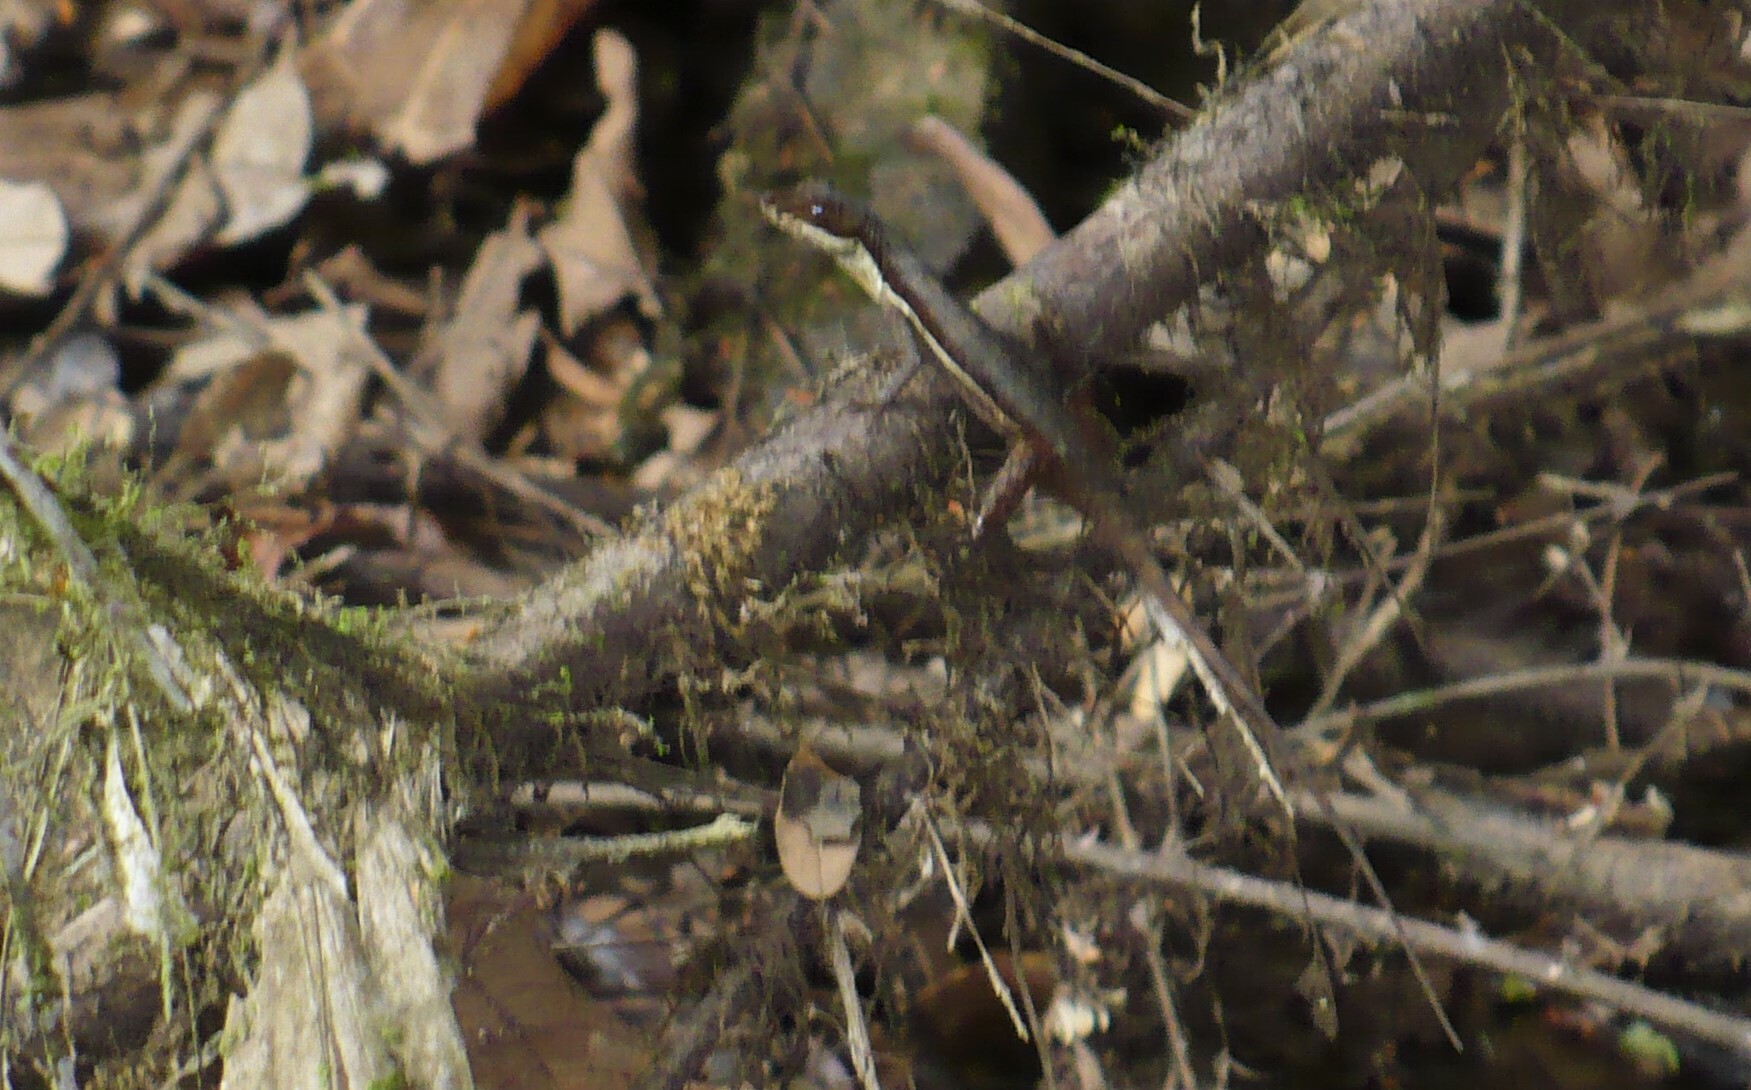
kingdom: Animalia
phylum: Chordata
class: Squamata
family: Dactyloidae
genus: Anolis
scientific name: Anolis oxylophus
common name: Stream anole
